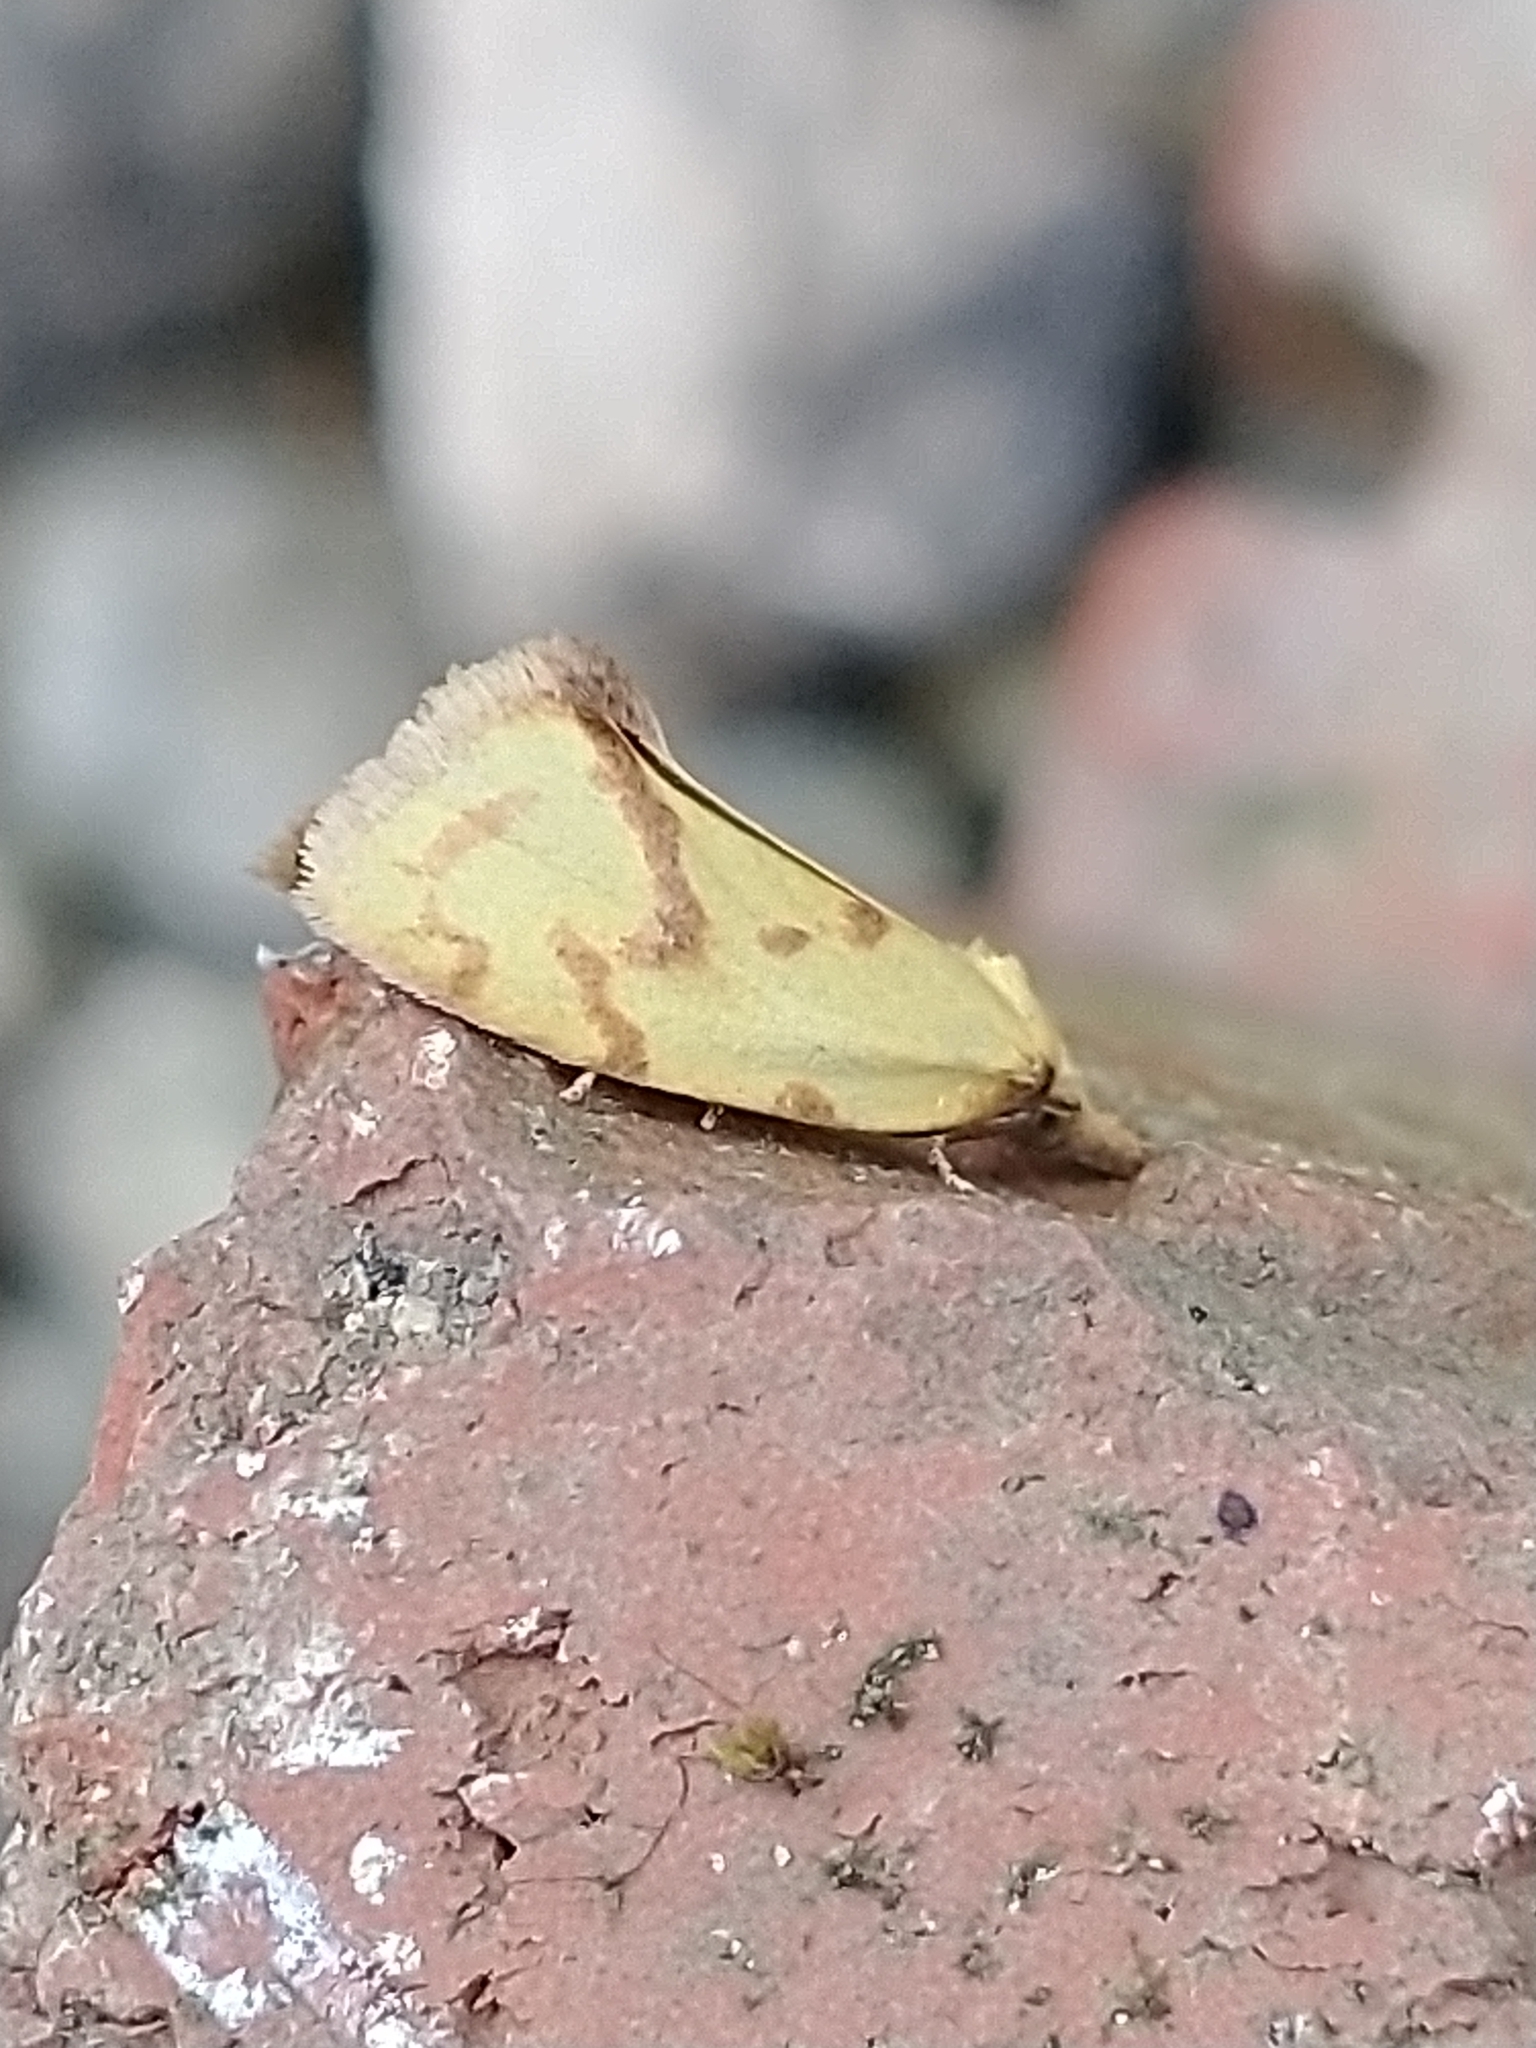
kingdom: Animalia
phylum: Arthropoda
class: Insecta
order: Lepidoptera
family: Tortricidae
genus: Agapeta
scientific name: Agapeta hamana
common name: Common yellow conch
